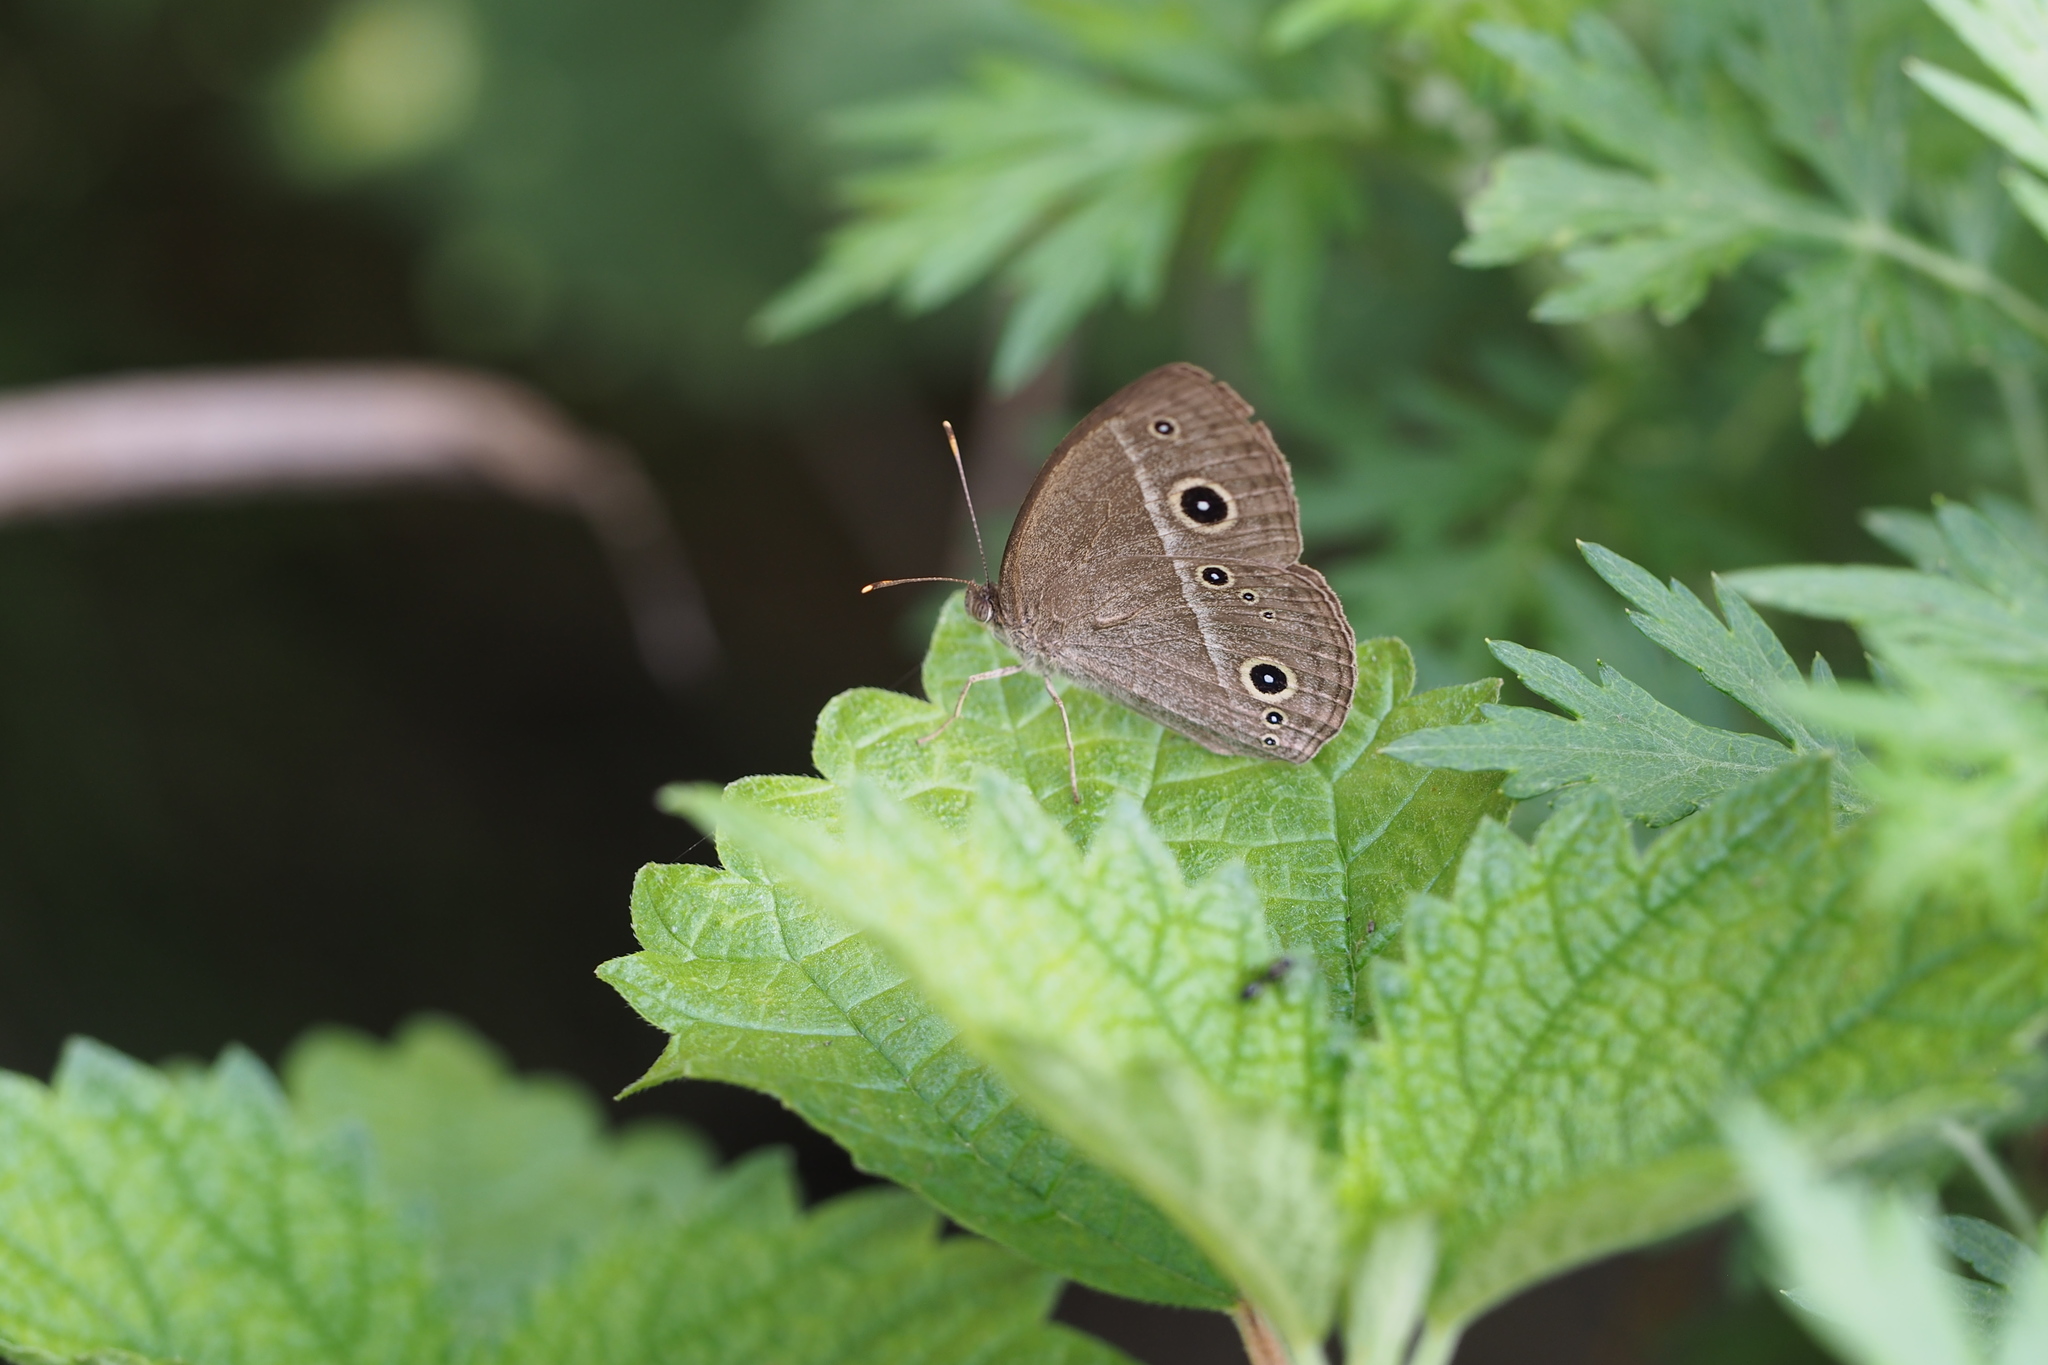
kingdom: Animalia
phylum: Arthropoda
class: Insecta
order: Lepidoptera
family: Nymphalidae
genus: Mycalesis
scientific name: Mycalesis gotama
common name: Chinese bushbrown
